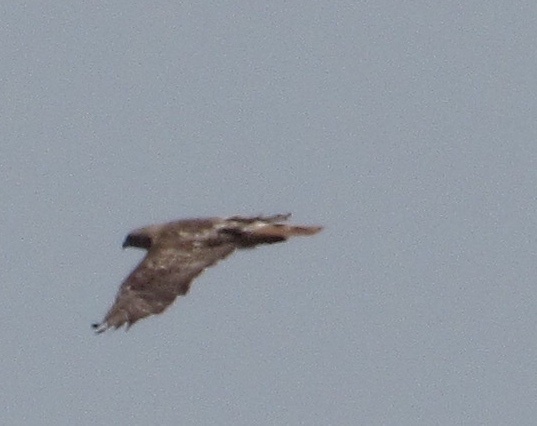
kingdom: Animalia
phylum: Chordata
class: Aves
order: Accipitriformes
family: Accipitridae
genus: Buteo
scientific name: Buteo jamaicensis
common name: Red-tailed hawk
